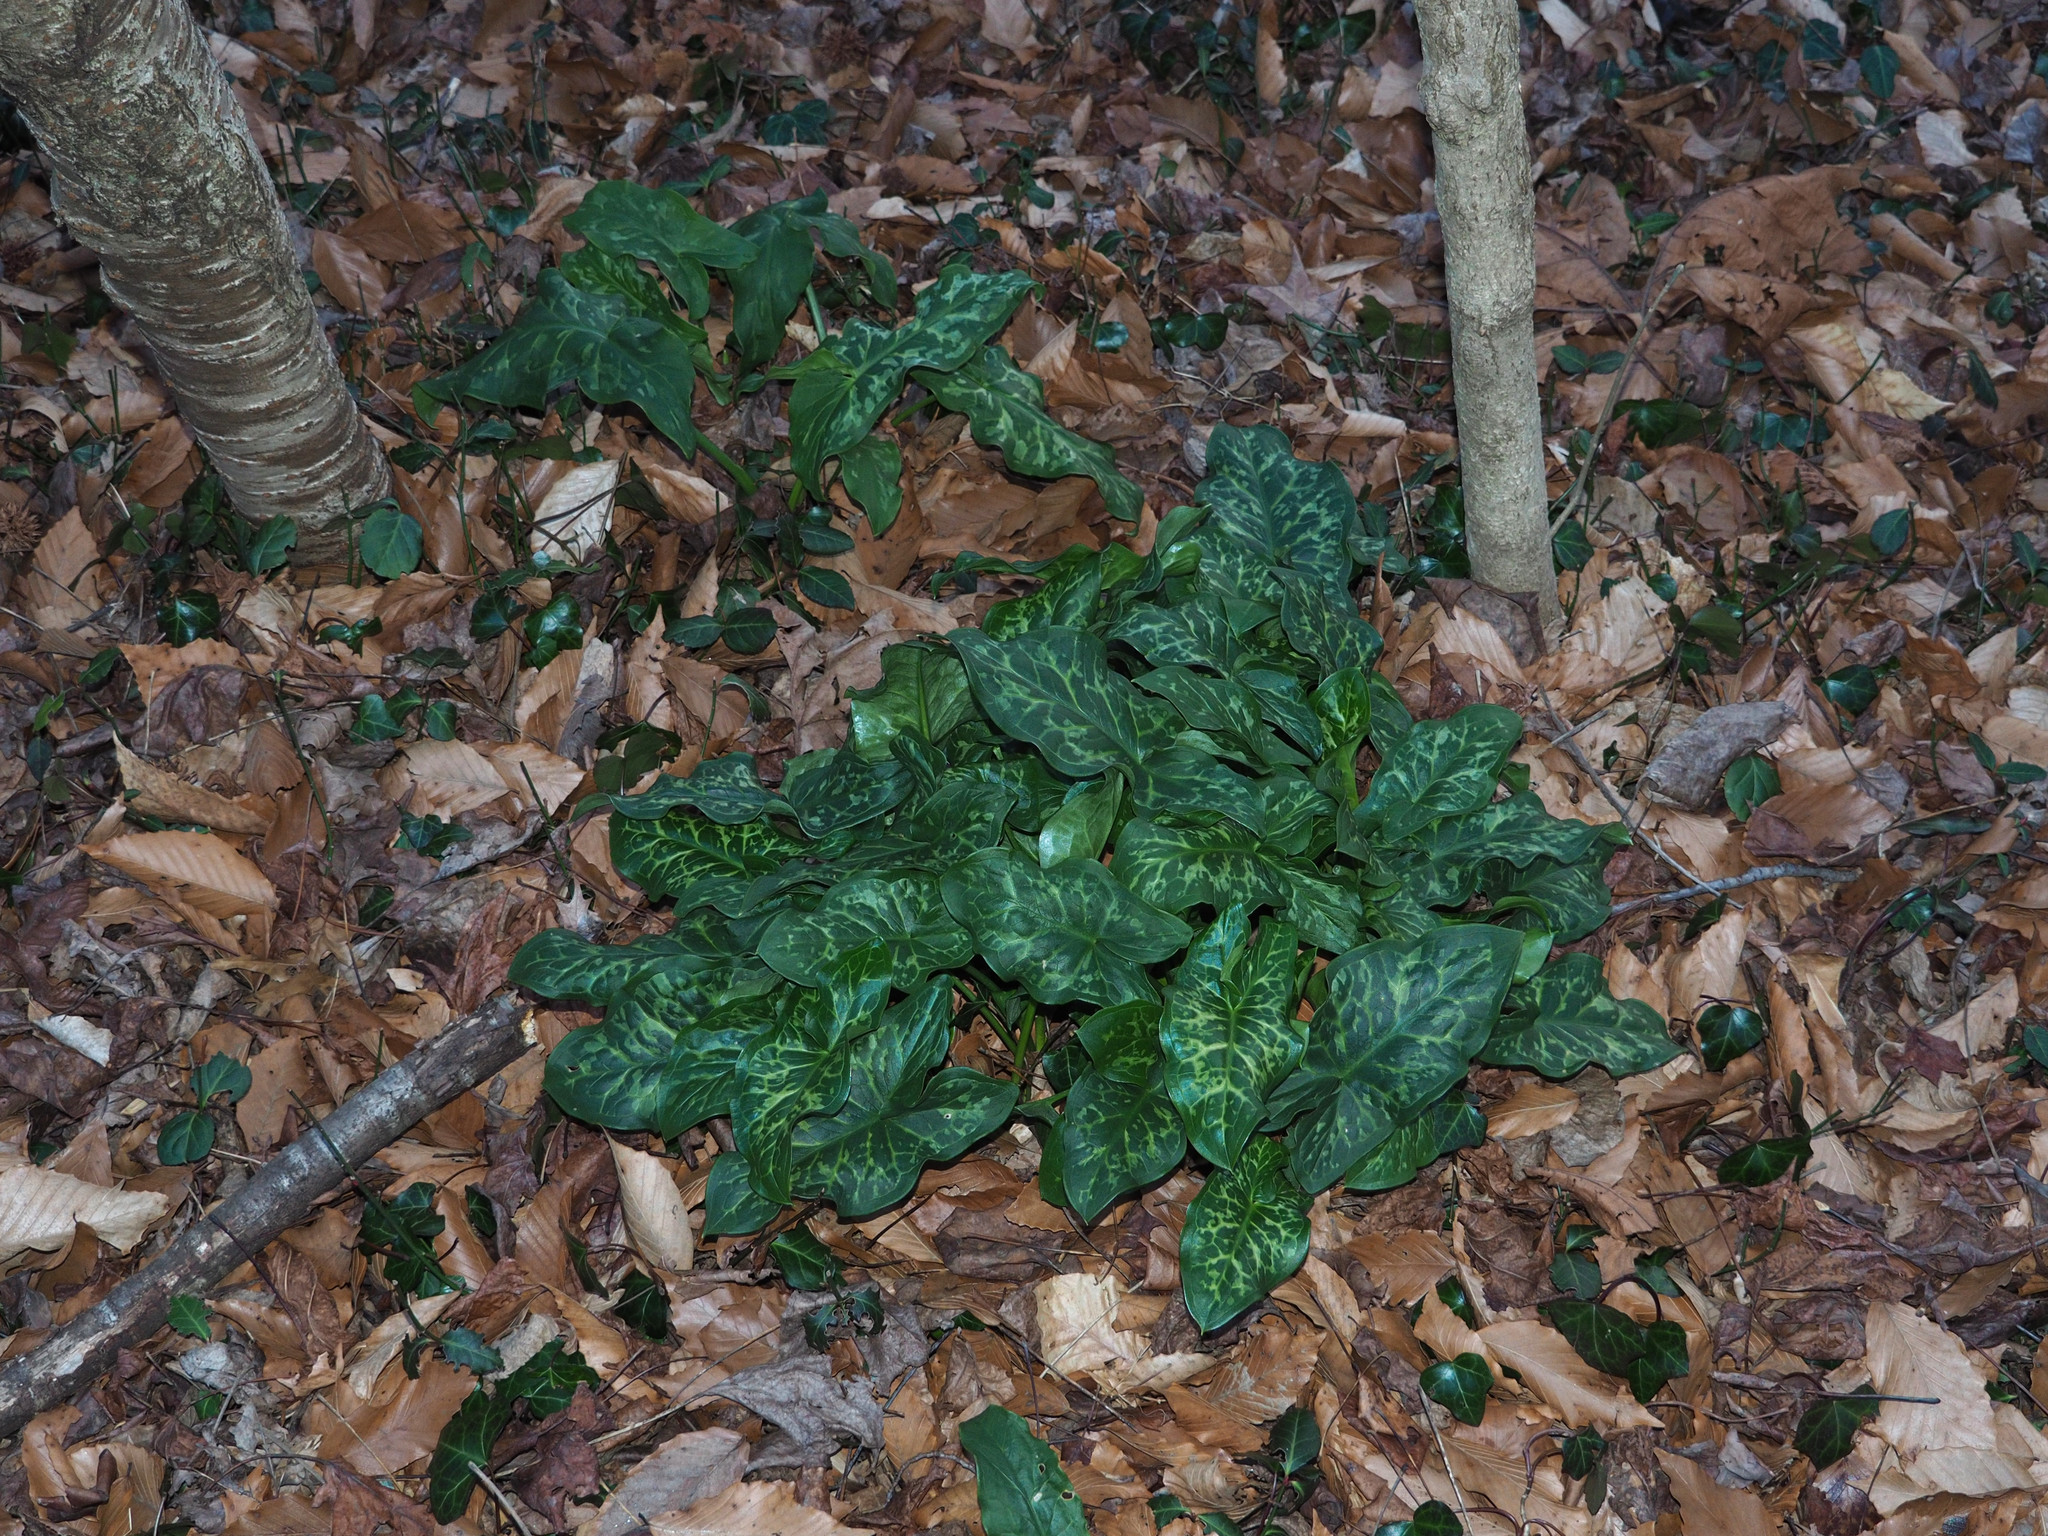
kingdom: Plantae
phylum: Tracheophyta
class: Liliopsida
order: Alismatales
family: Araceae
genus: Arum
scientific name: Arum italicum
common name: Italian lords-and-ladies
